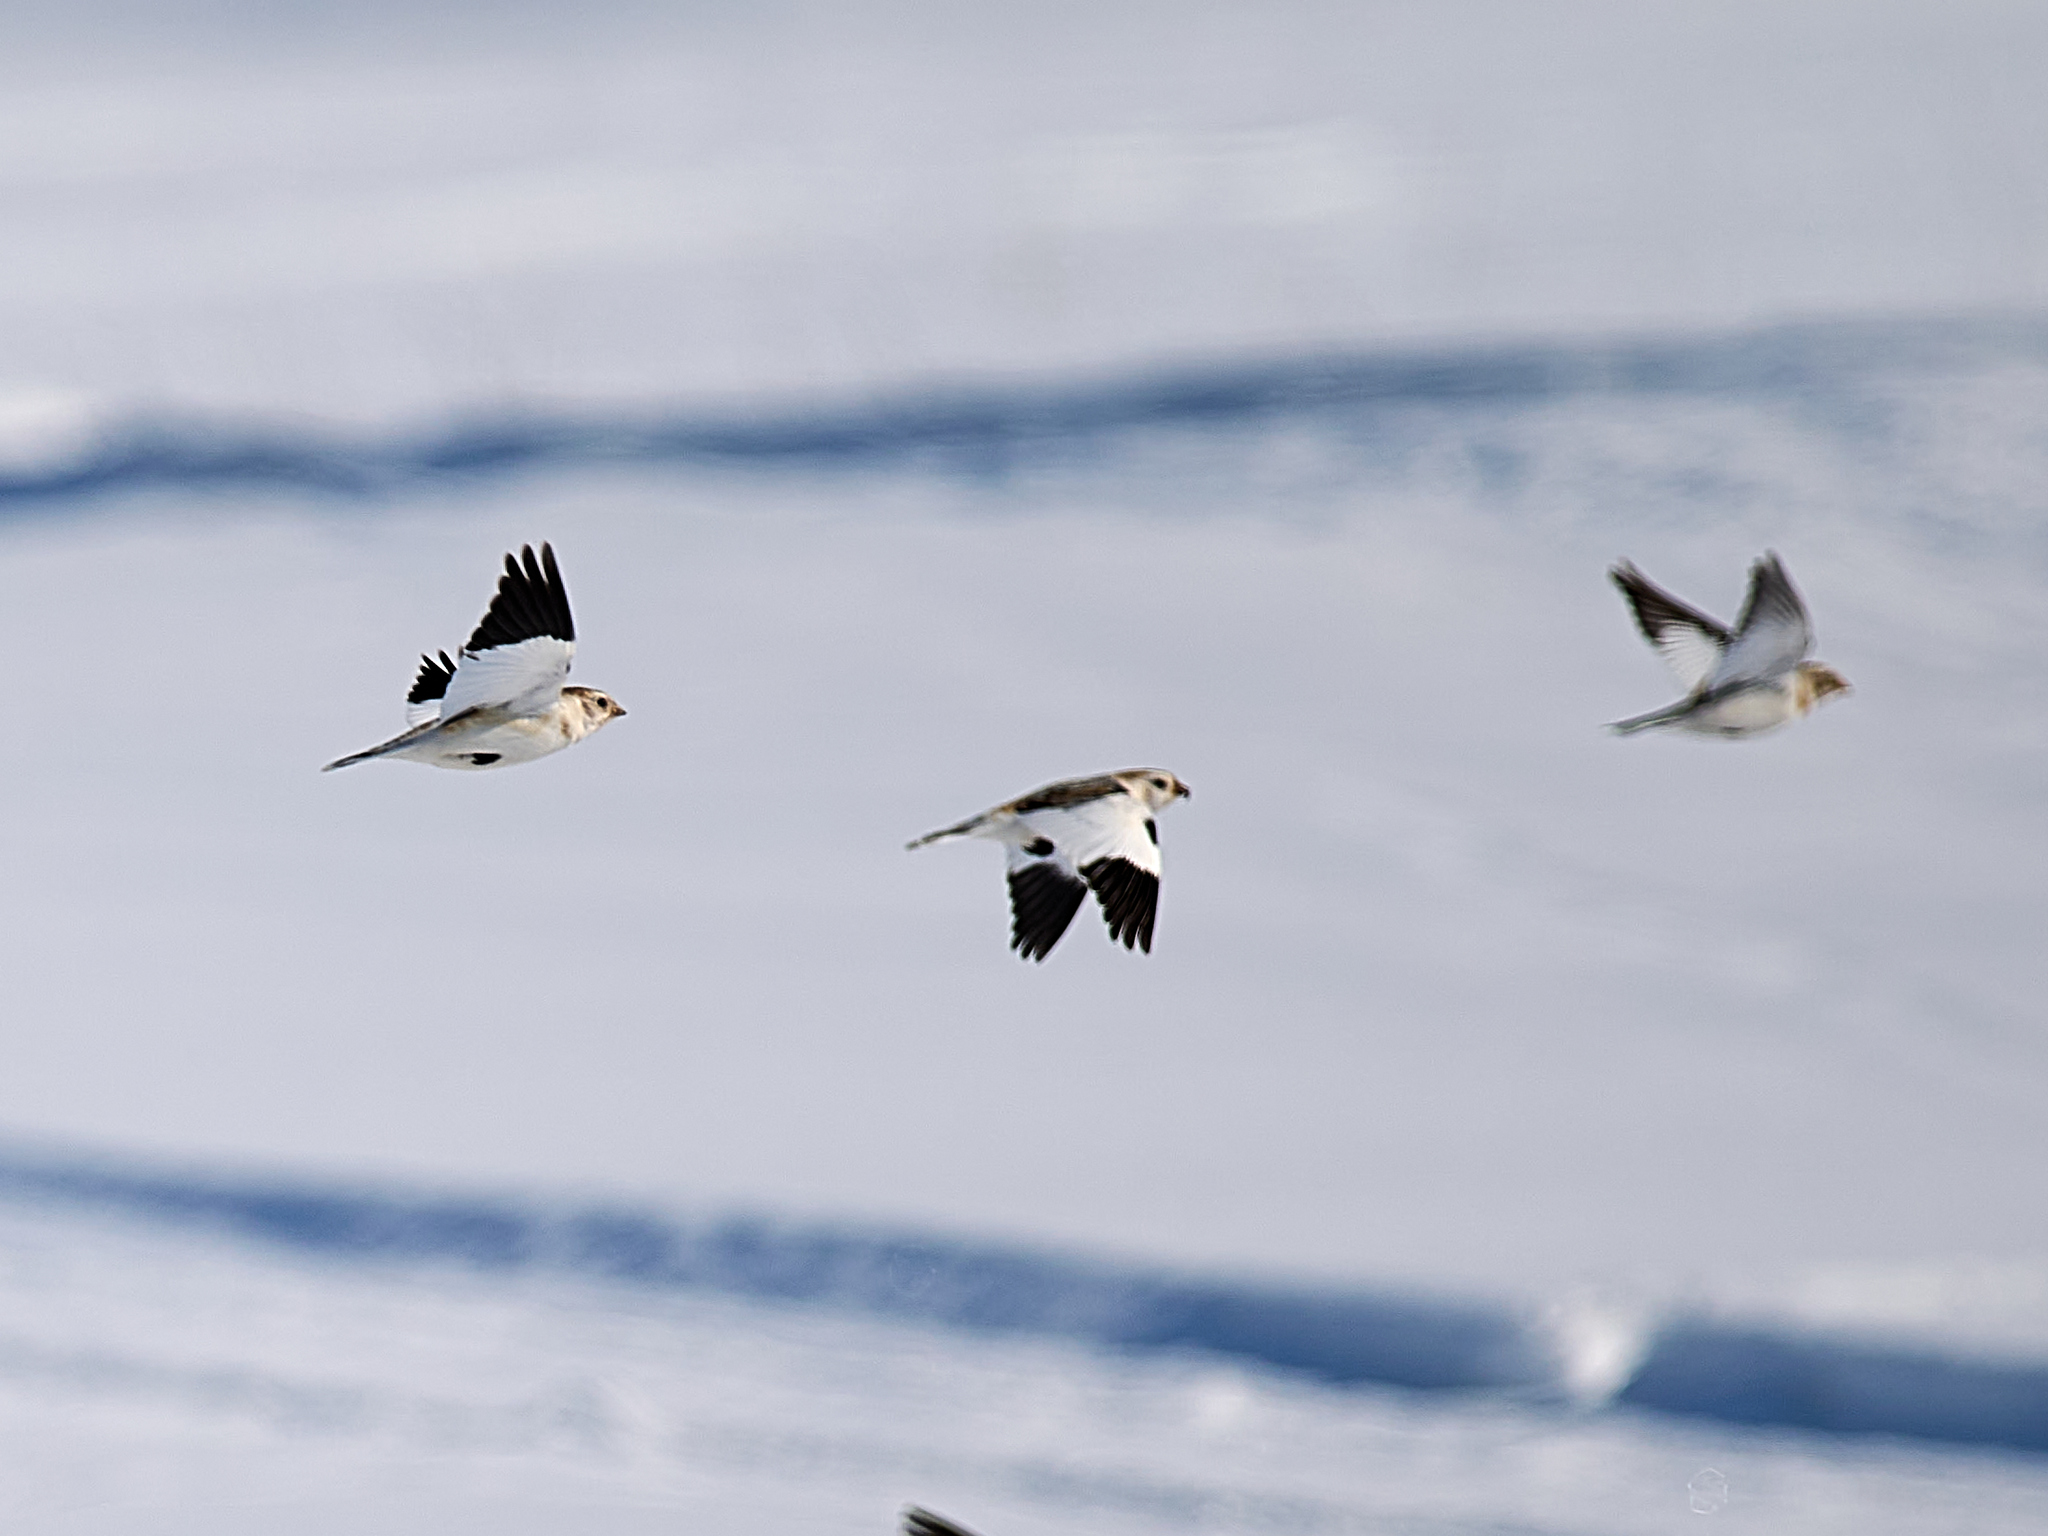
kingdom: Animalia
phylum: Chordata
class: Aves
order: Passeriformes
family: Calcariidae
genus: Plectrophenax
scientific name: Plectrophenax nivalis
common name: Snow bunting
